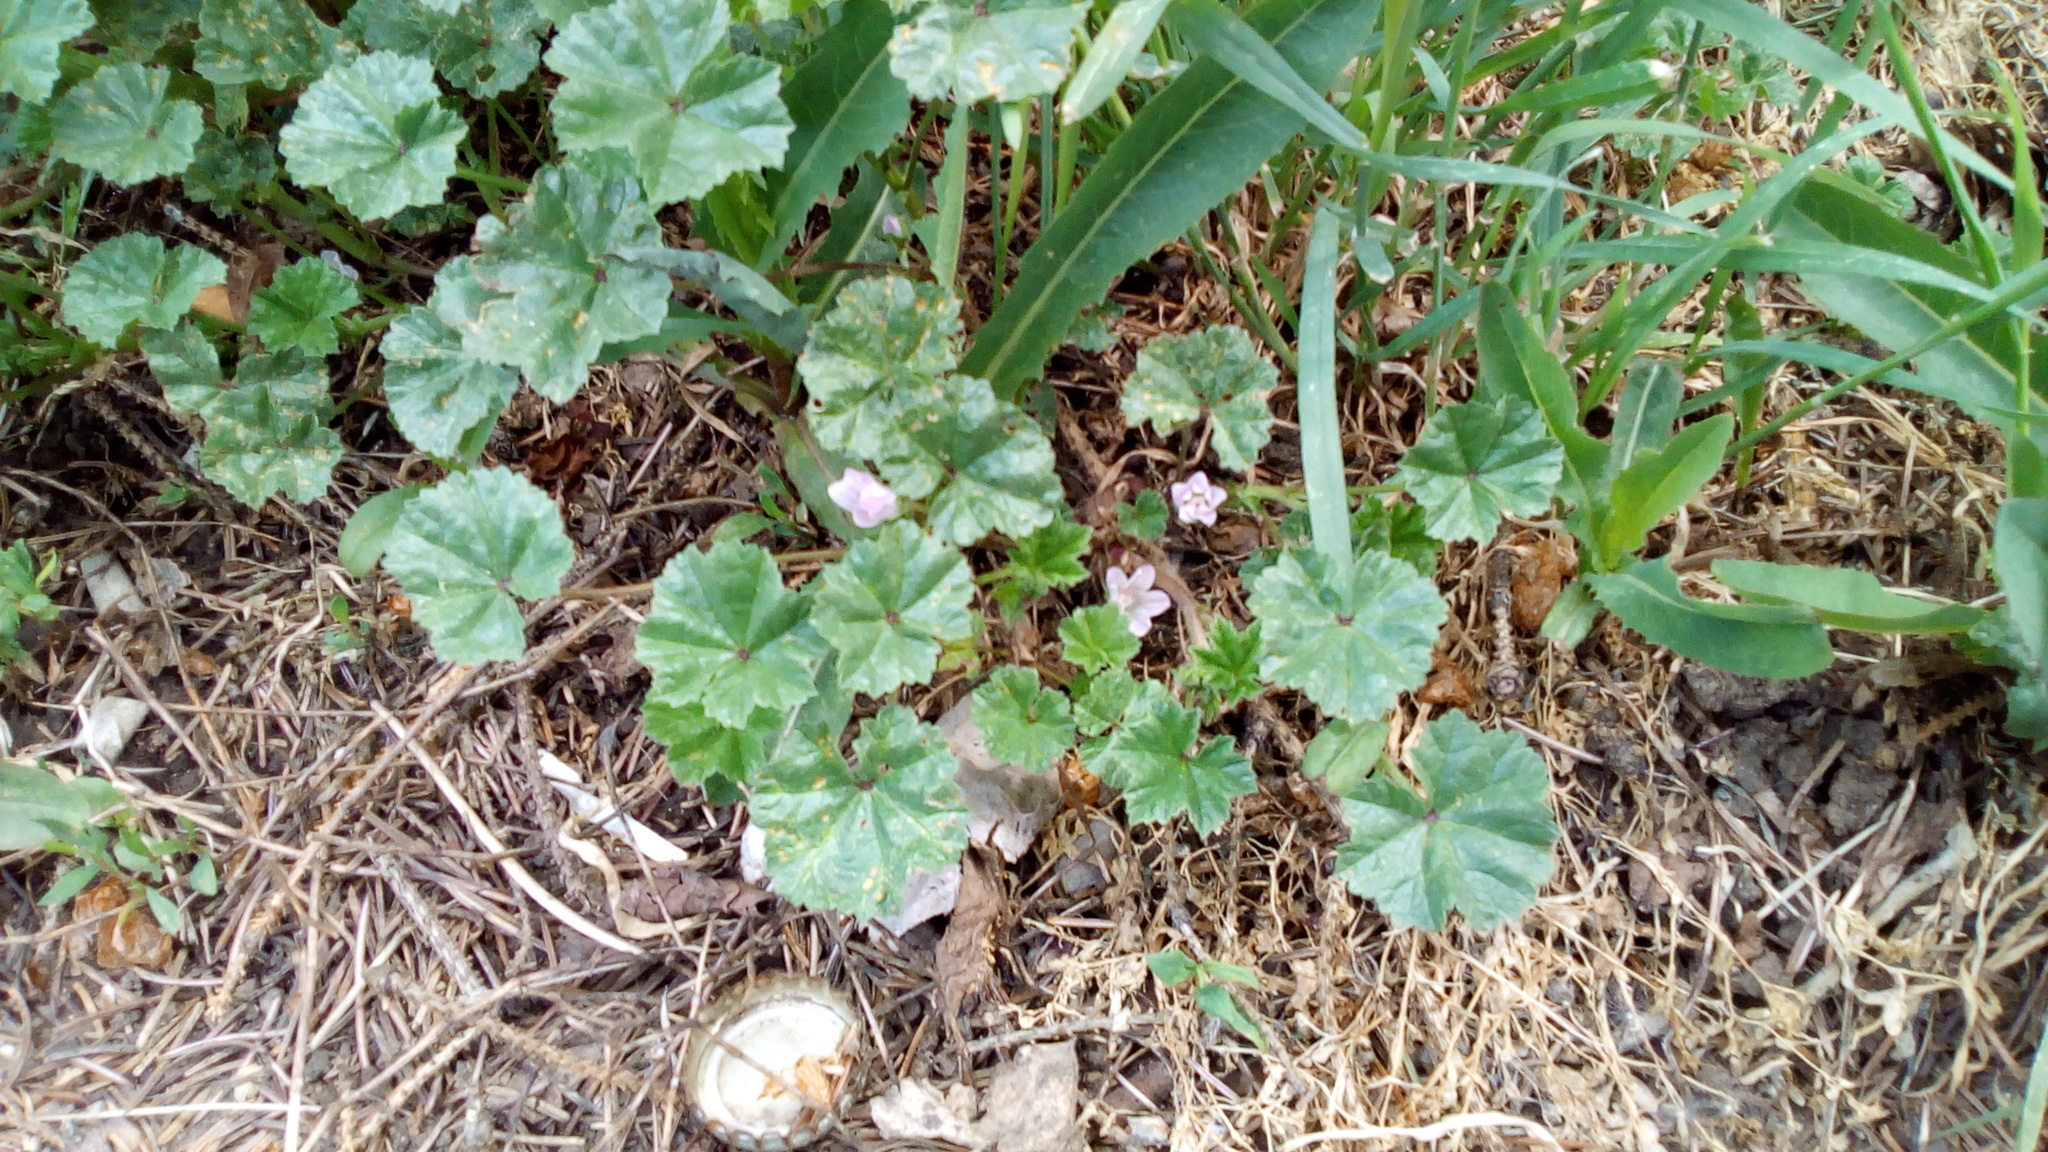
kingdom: Plantae
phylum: Tracheophyta
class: Magnoliopsida
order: Malvales
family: Malvaceae
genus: Malva
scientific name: Malva neglecta
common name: Common mallow
